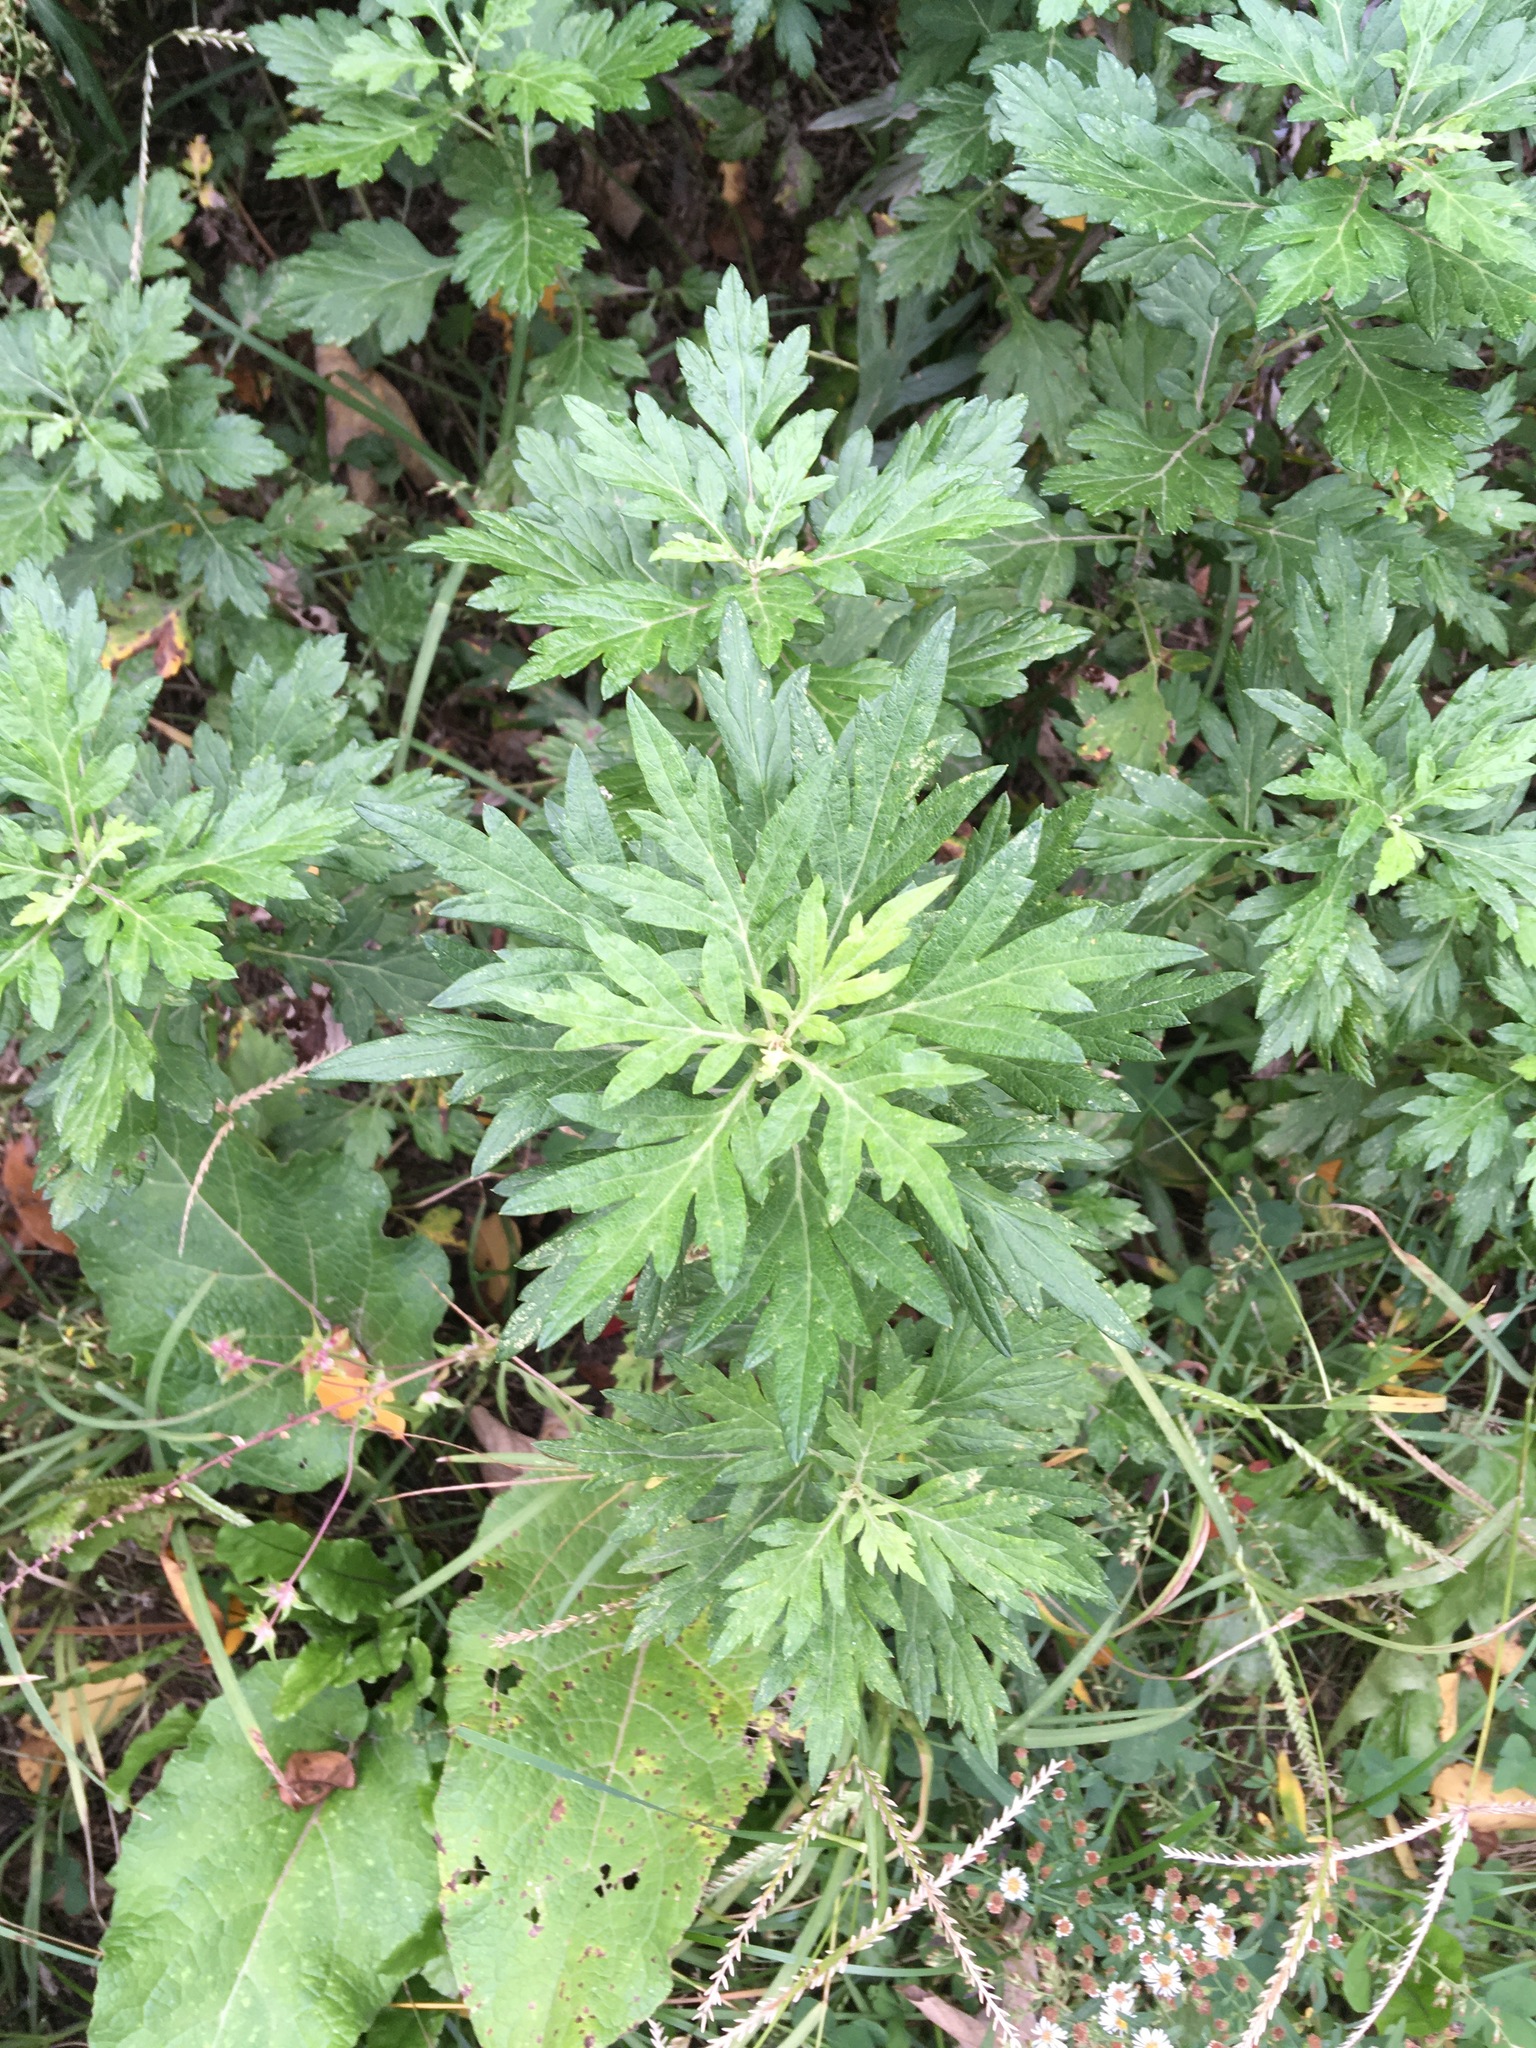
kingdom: Plantae
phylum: Tracheophyta
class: Magnoliopsida
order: Asterales
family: Asteraceae
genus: Artemisia
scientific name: Artemisia vulgaris
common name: Mugwort
